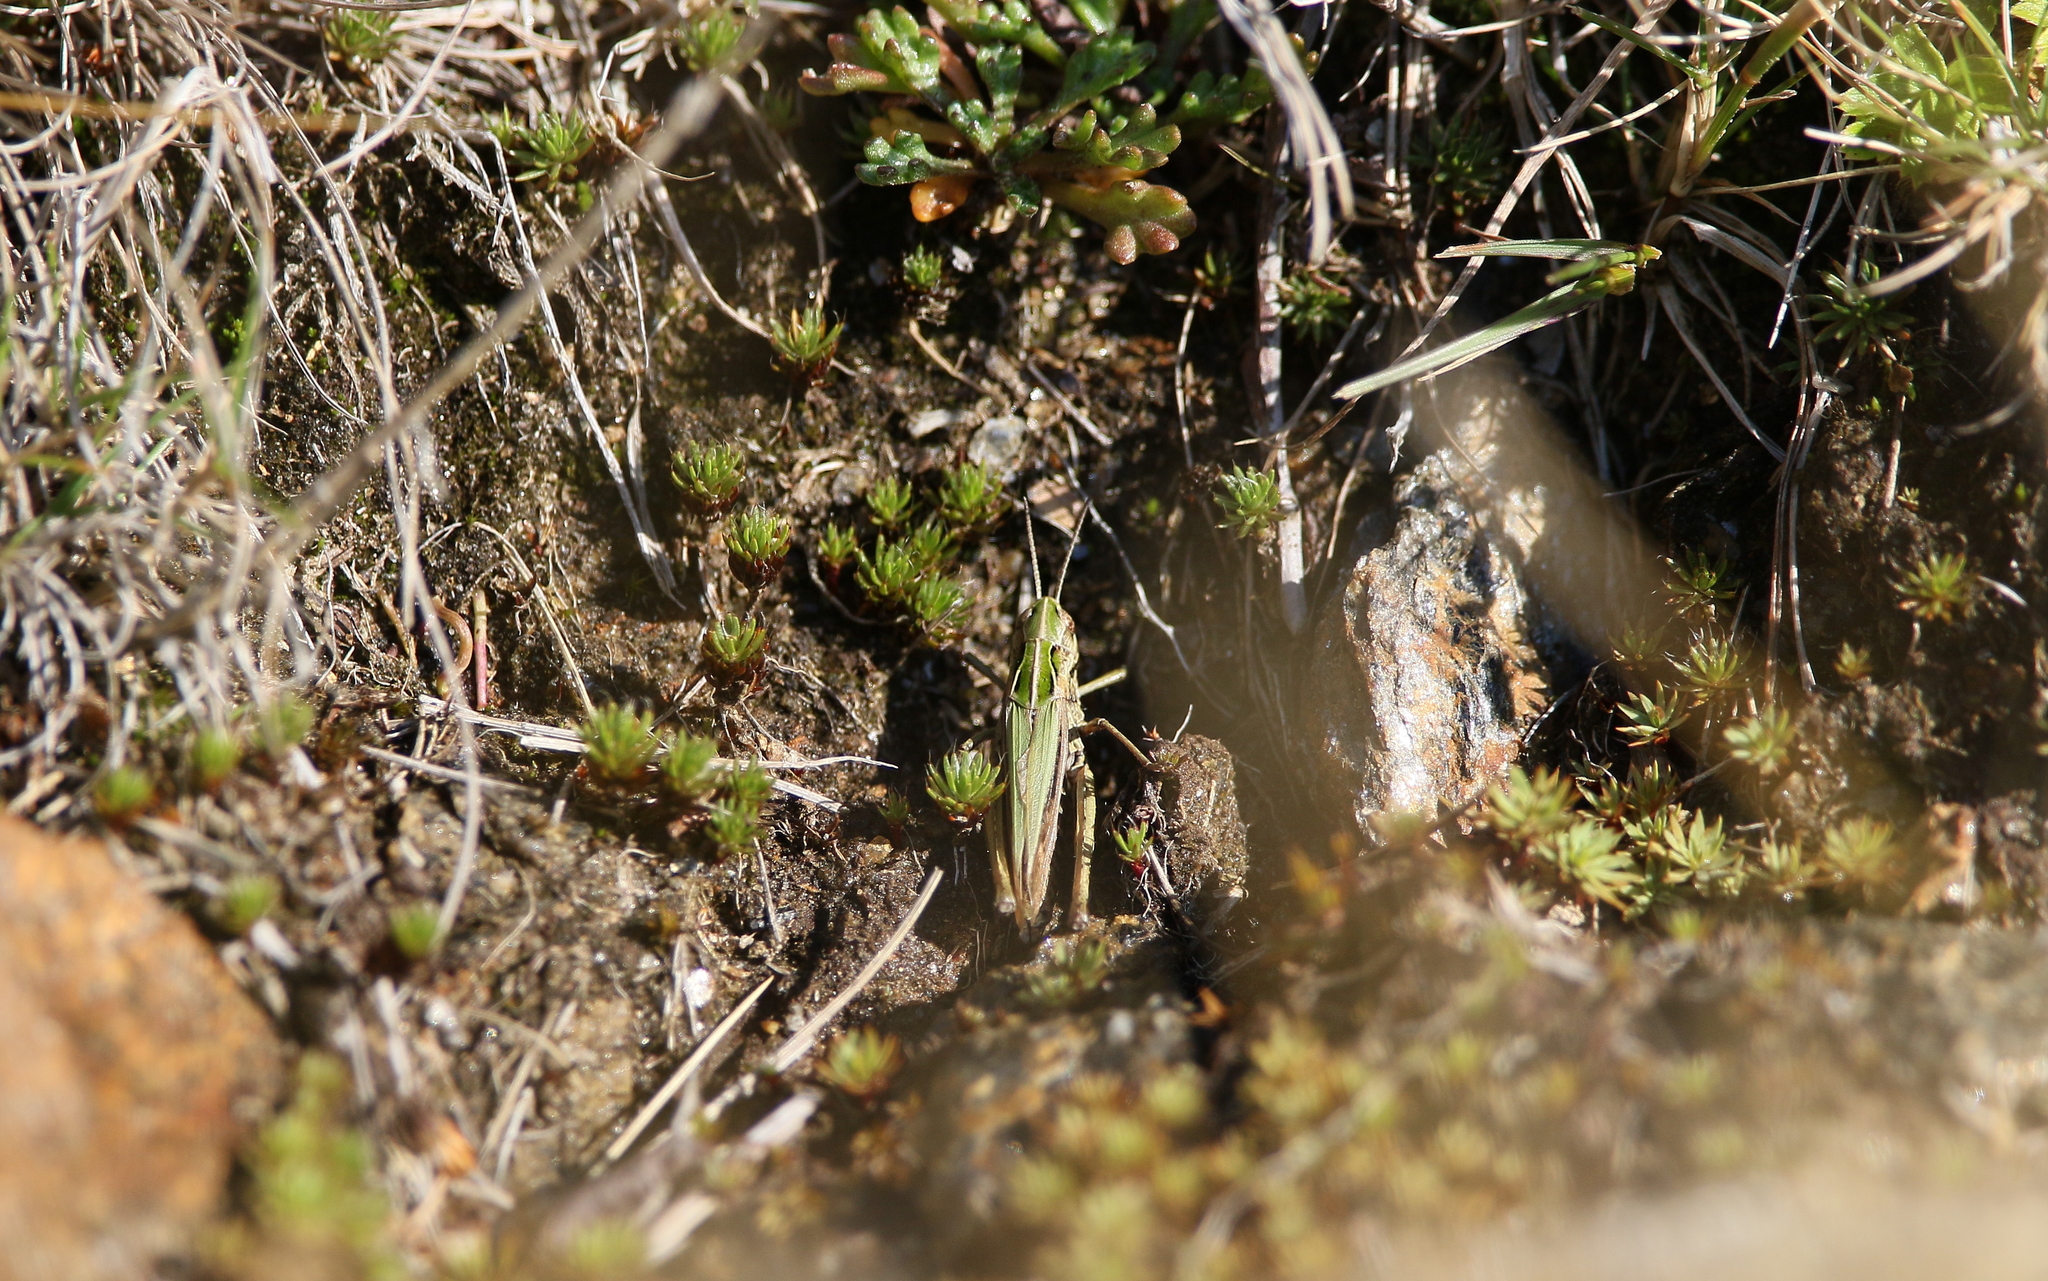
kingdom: Animalia
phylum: Arthropoda
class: Insecta
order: Orthoptera
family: Acrididae
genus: Omocestus
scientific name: Omocestus viridulus
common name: Common green grasshopper
